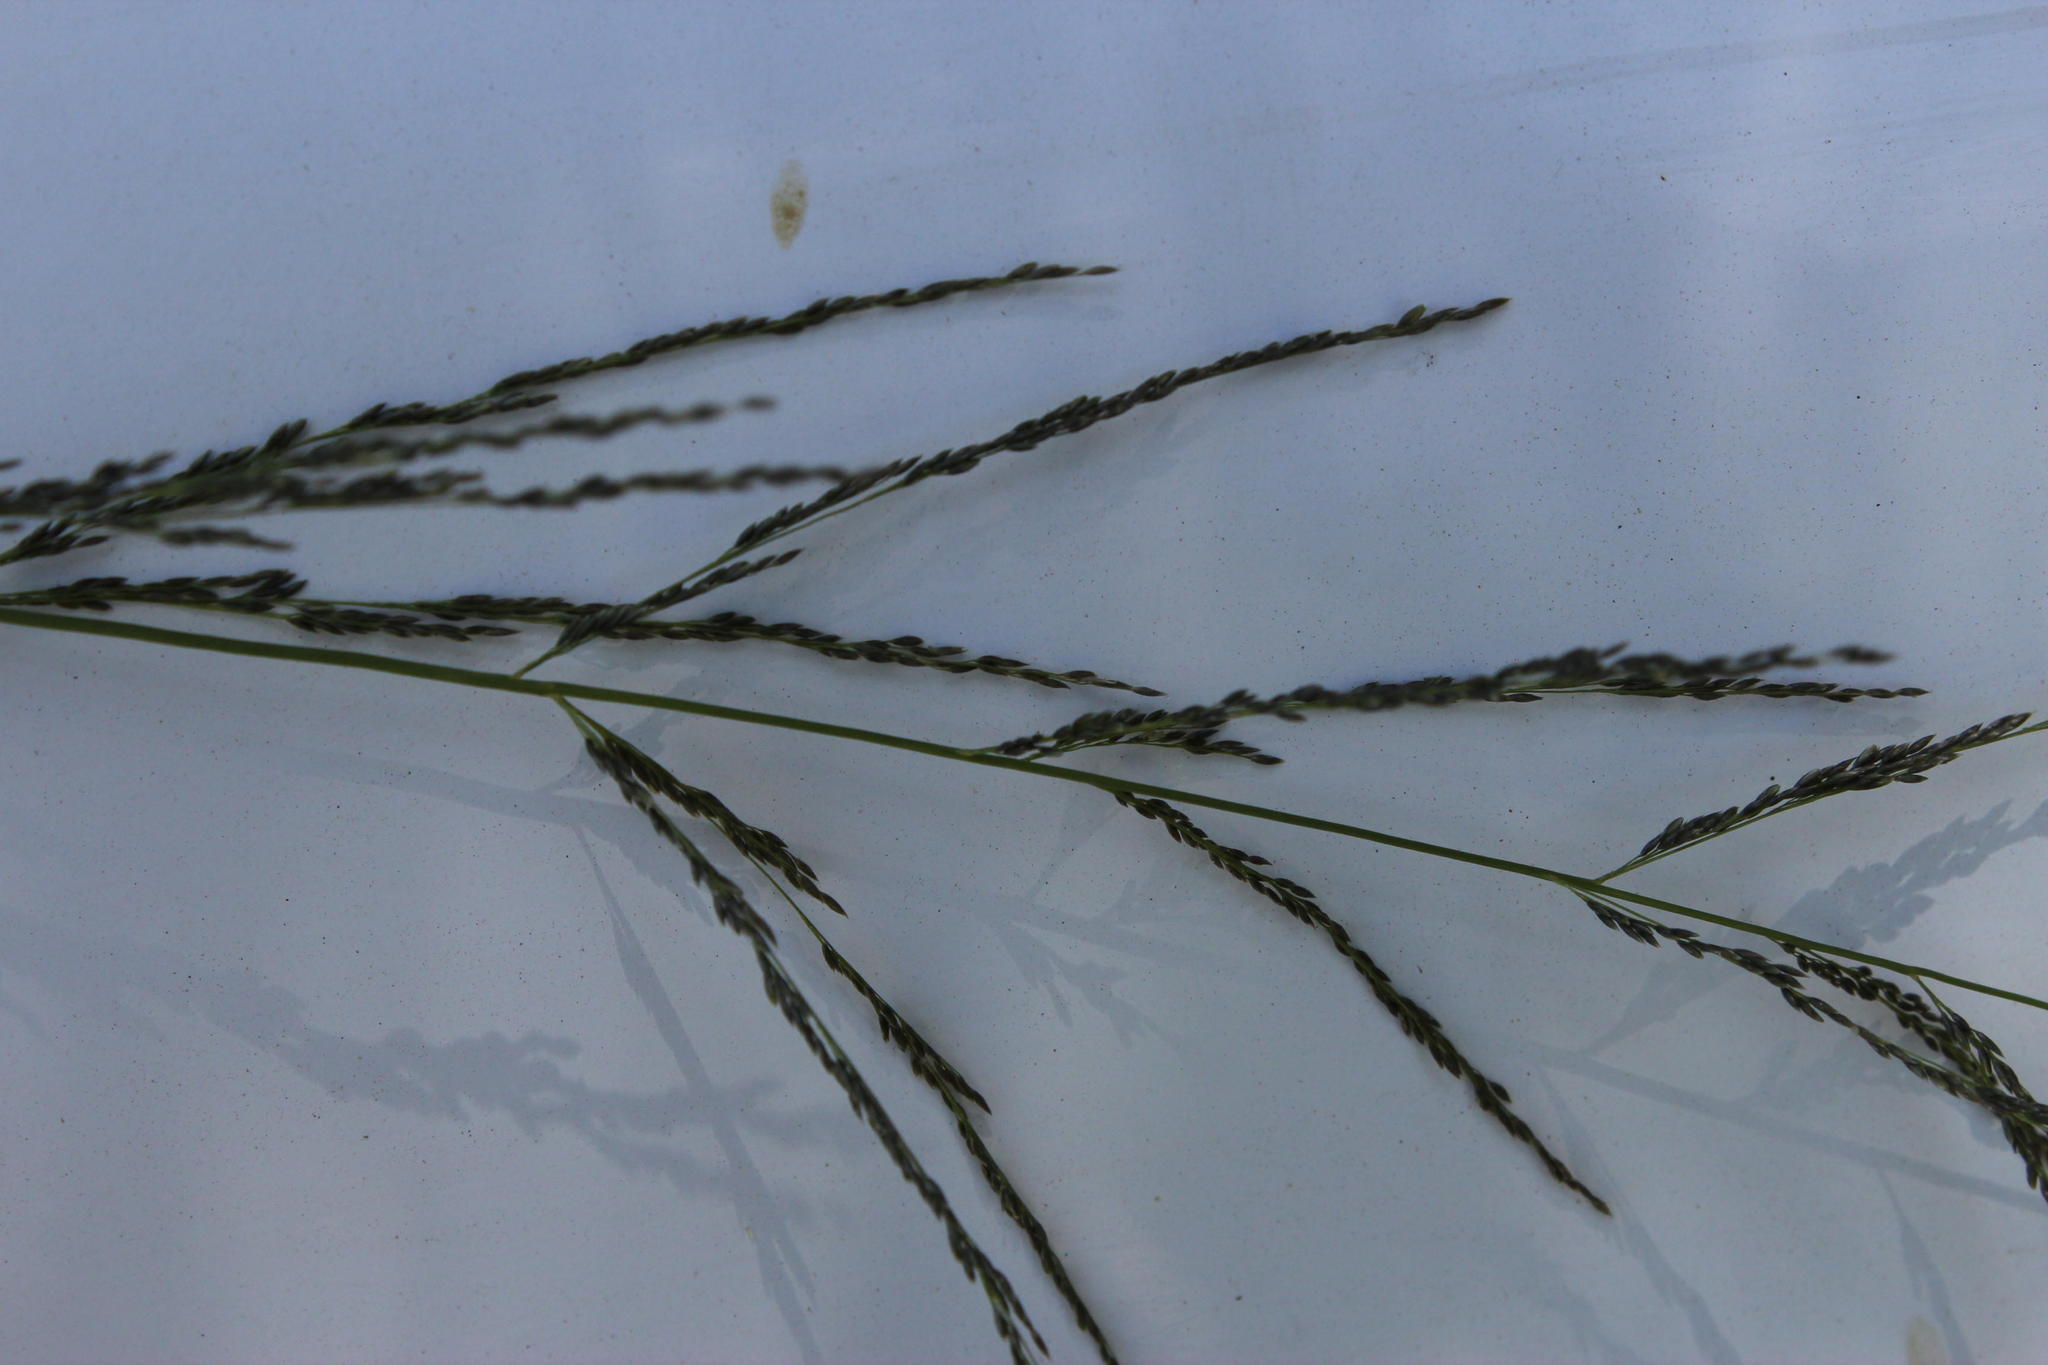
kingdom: Plantae
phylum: Tracheophyta
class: Liliopsida
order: Poales
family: Poaceae
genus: Eragrostis
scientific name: Eragrostis curvula
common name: African love-grass
